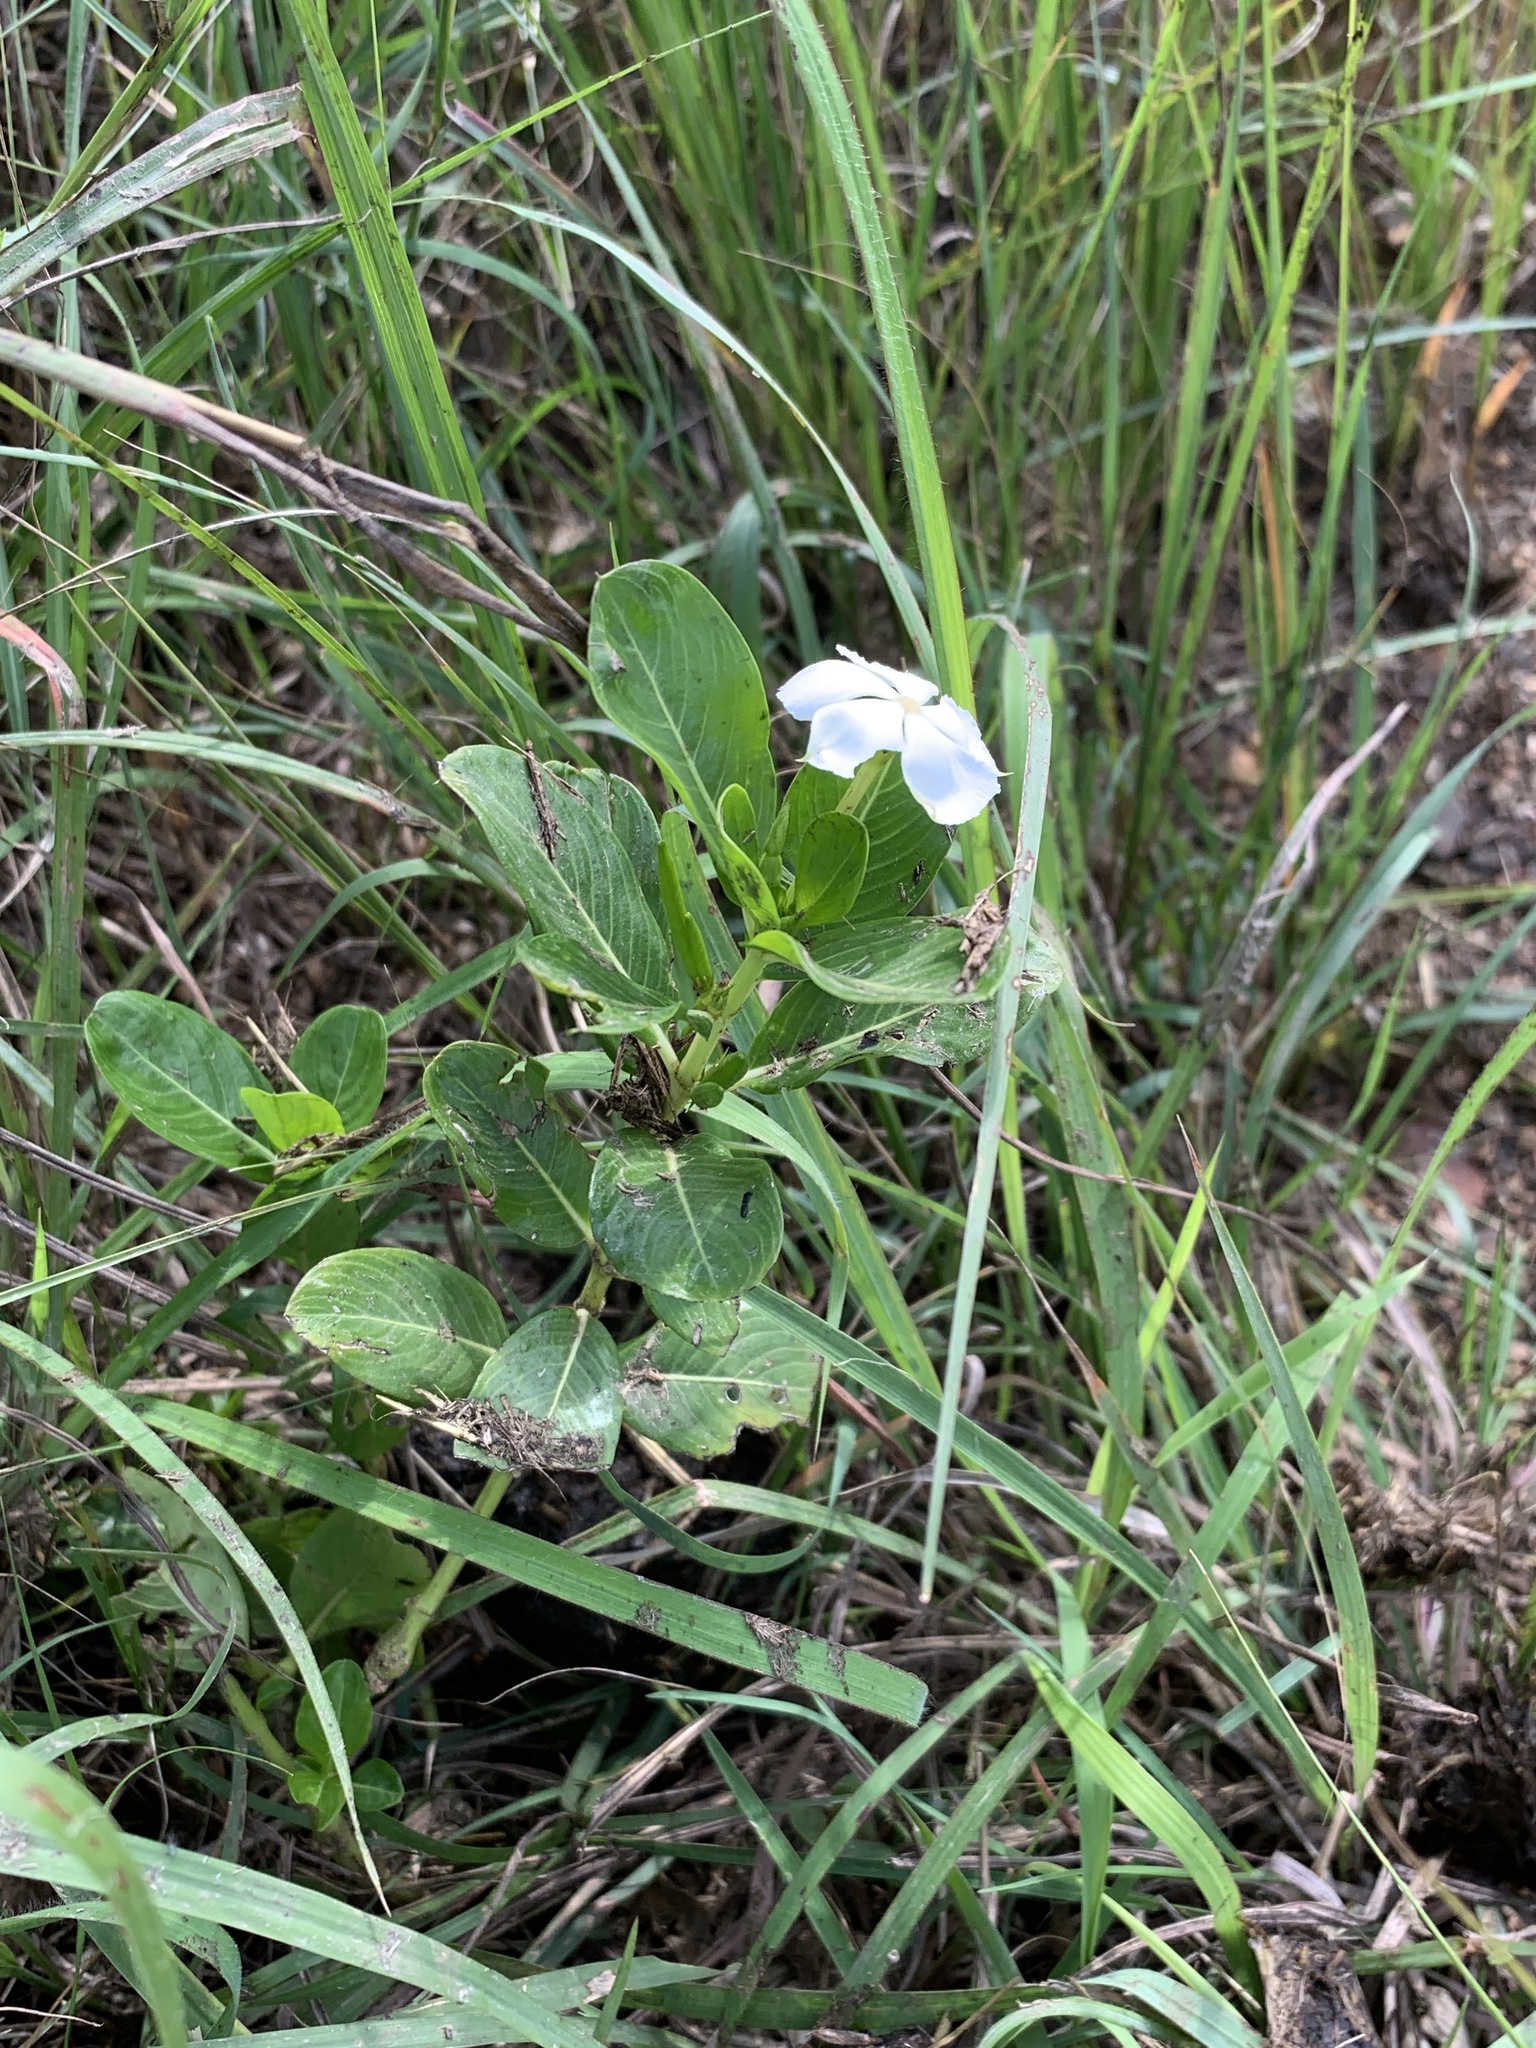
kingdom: Plantae
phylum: Tracheophyta
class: Magnoliopsida
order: Gentianales
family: Apocynaceae
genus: Catharanthus
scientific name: Catharanthus roseus
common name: Madagascar periwinkle
